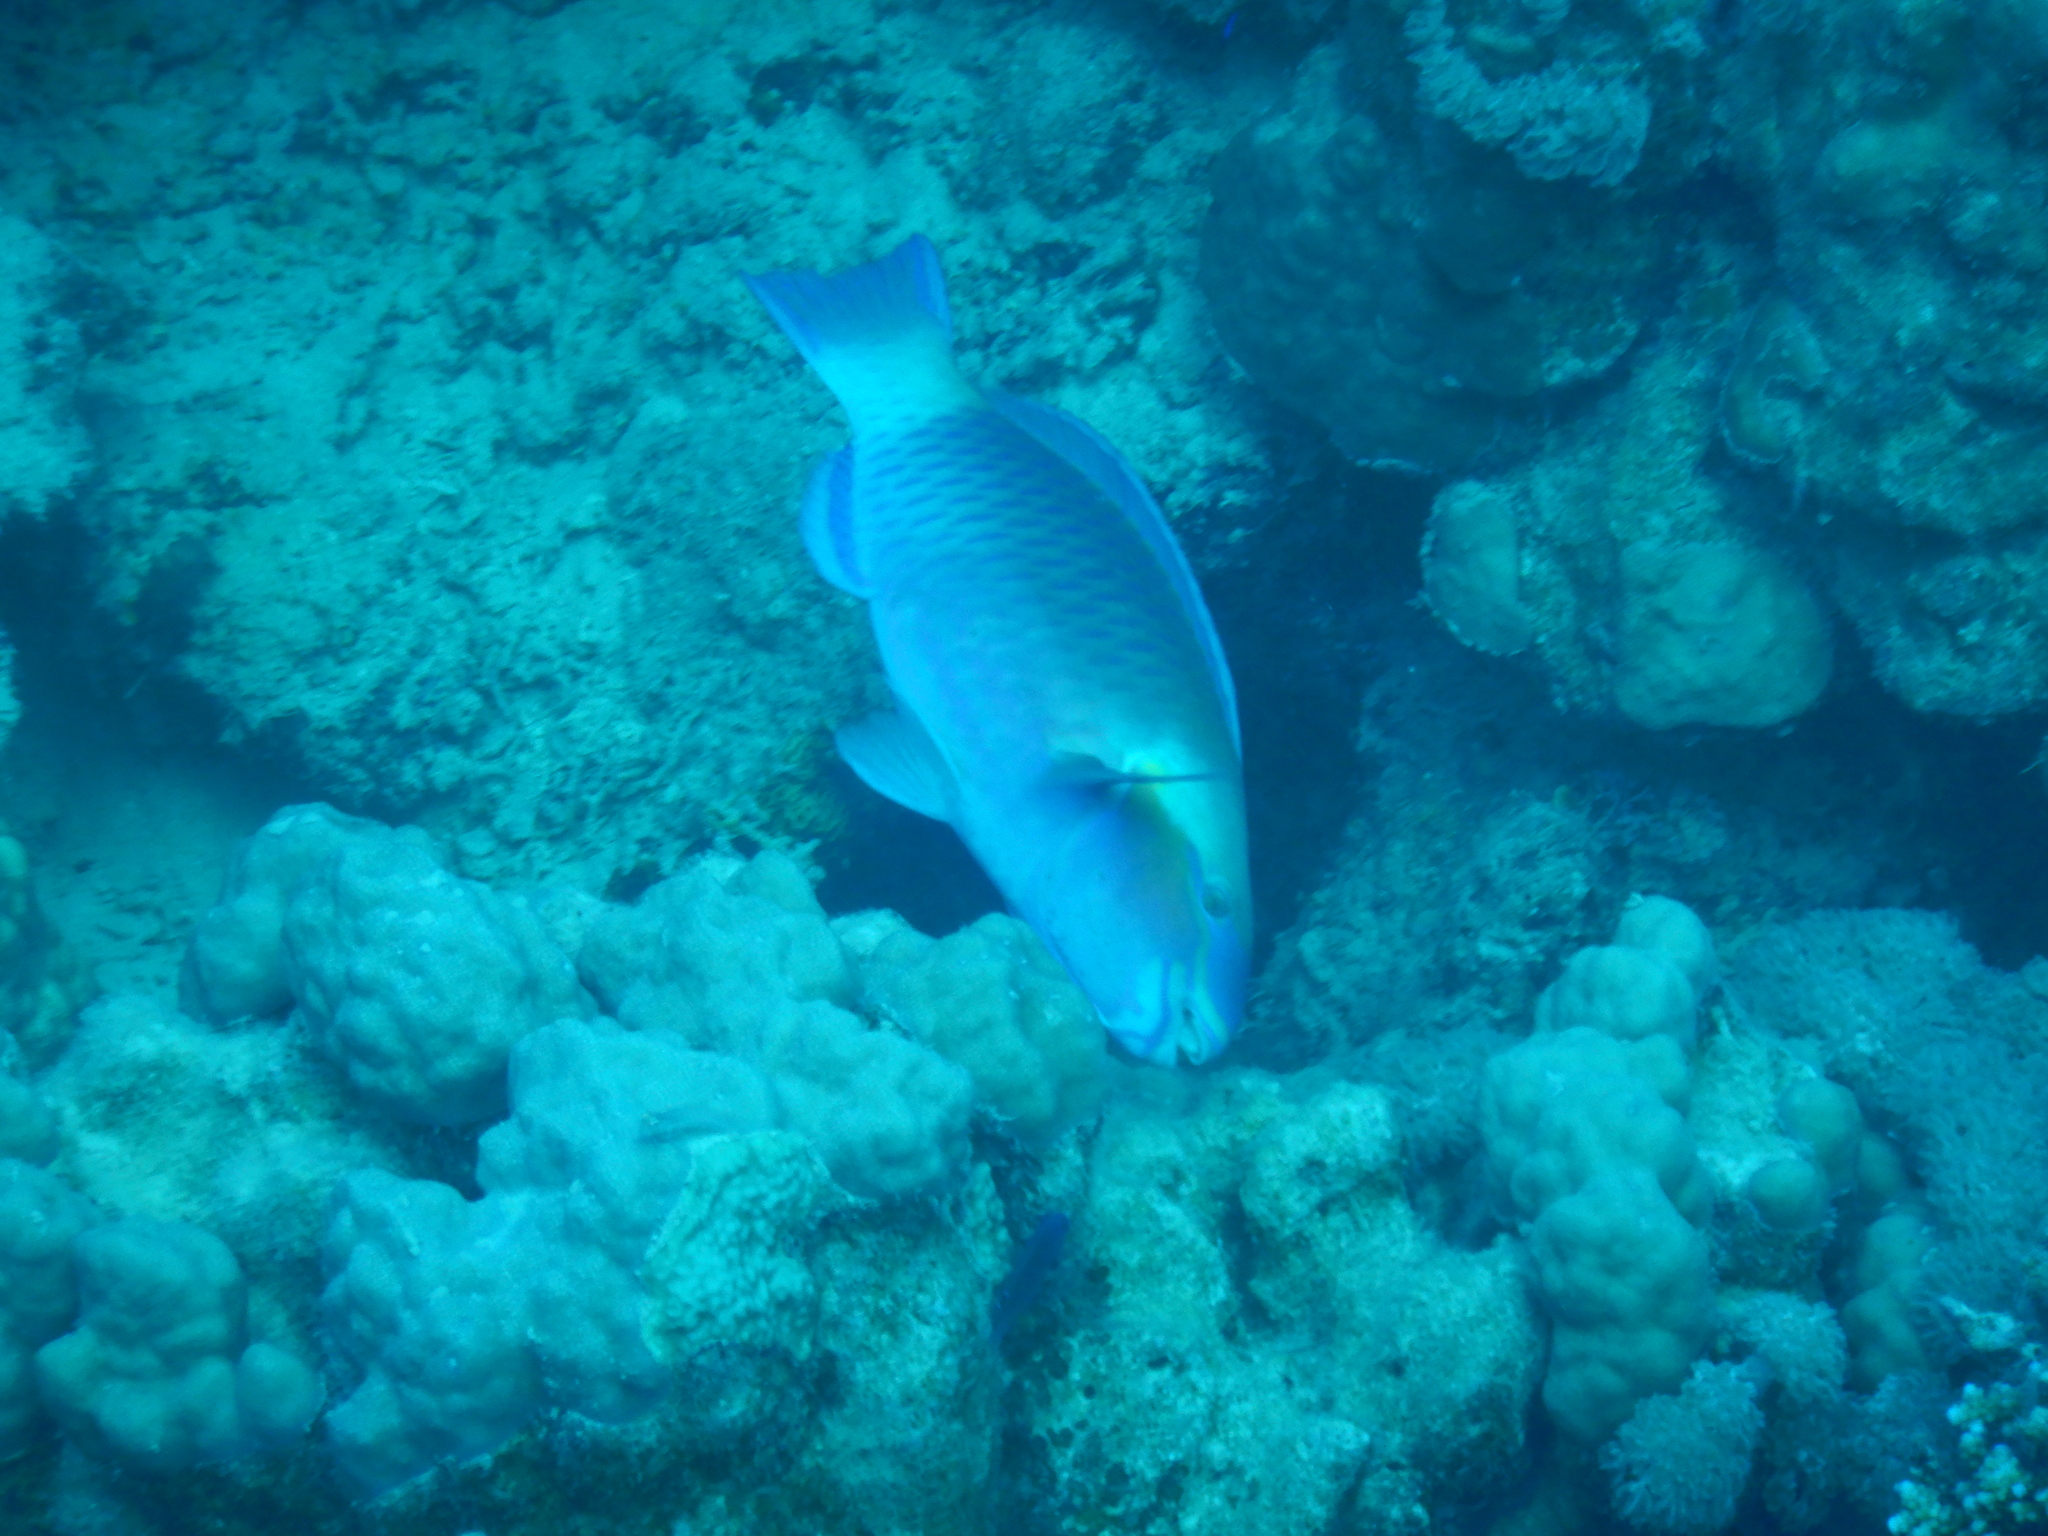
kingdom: Animalia
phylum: Chordata
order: Perciformes
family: Scaridae
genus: Chlorurus
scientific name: Chlorurus sordidus
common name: Bullethead parrotfish
